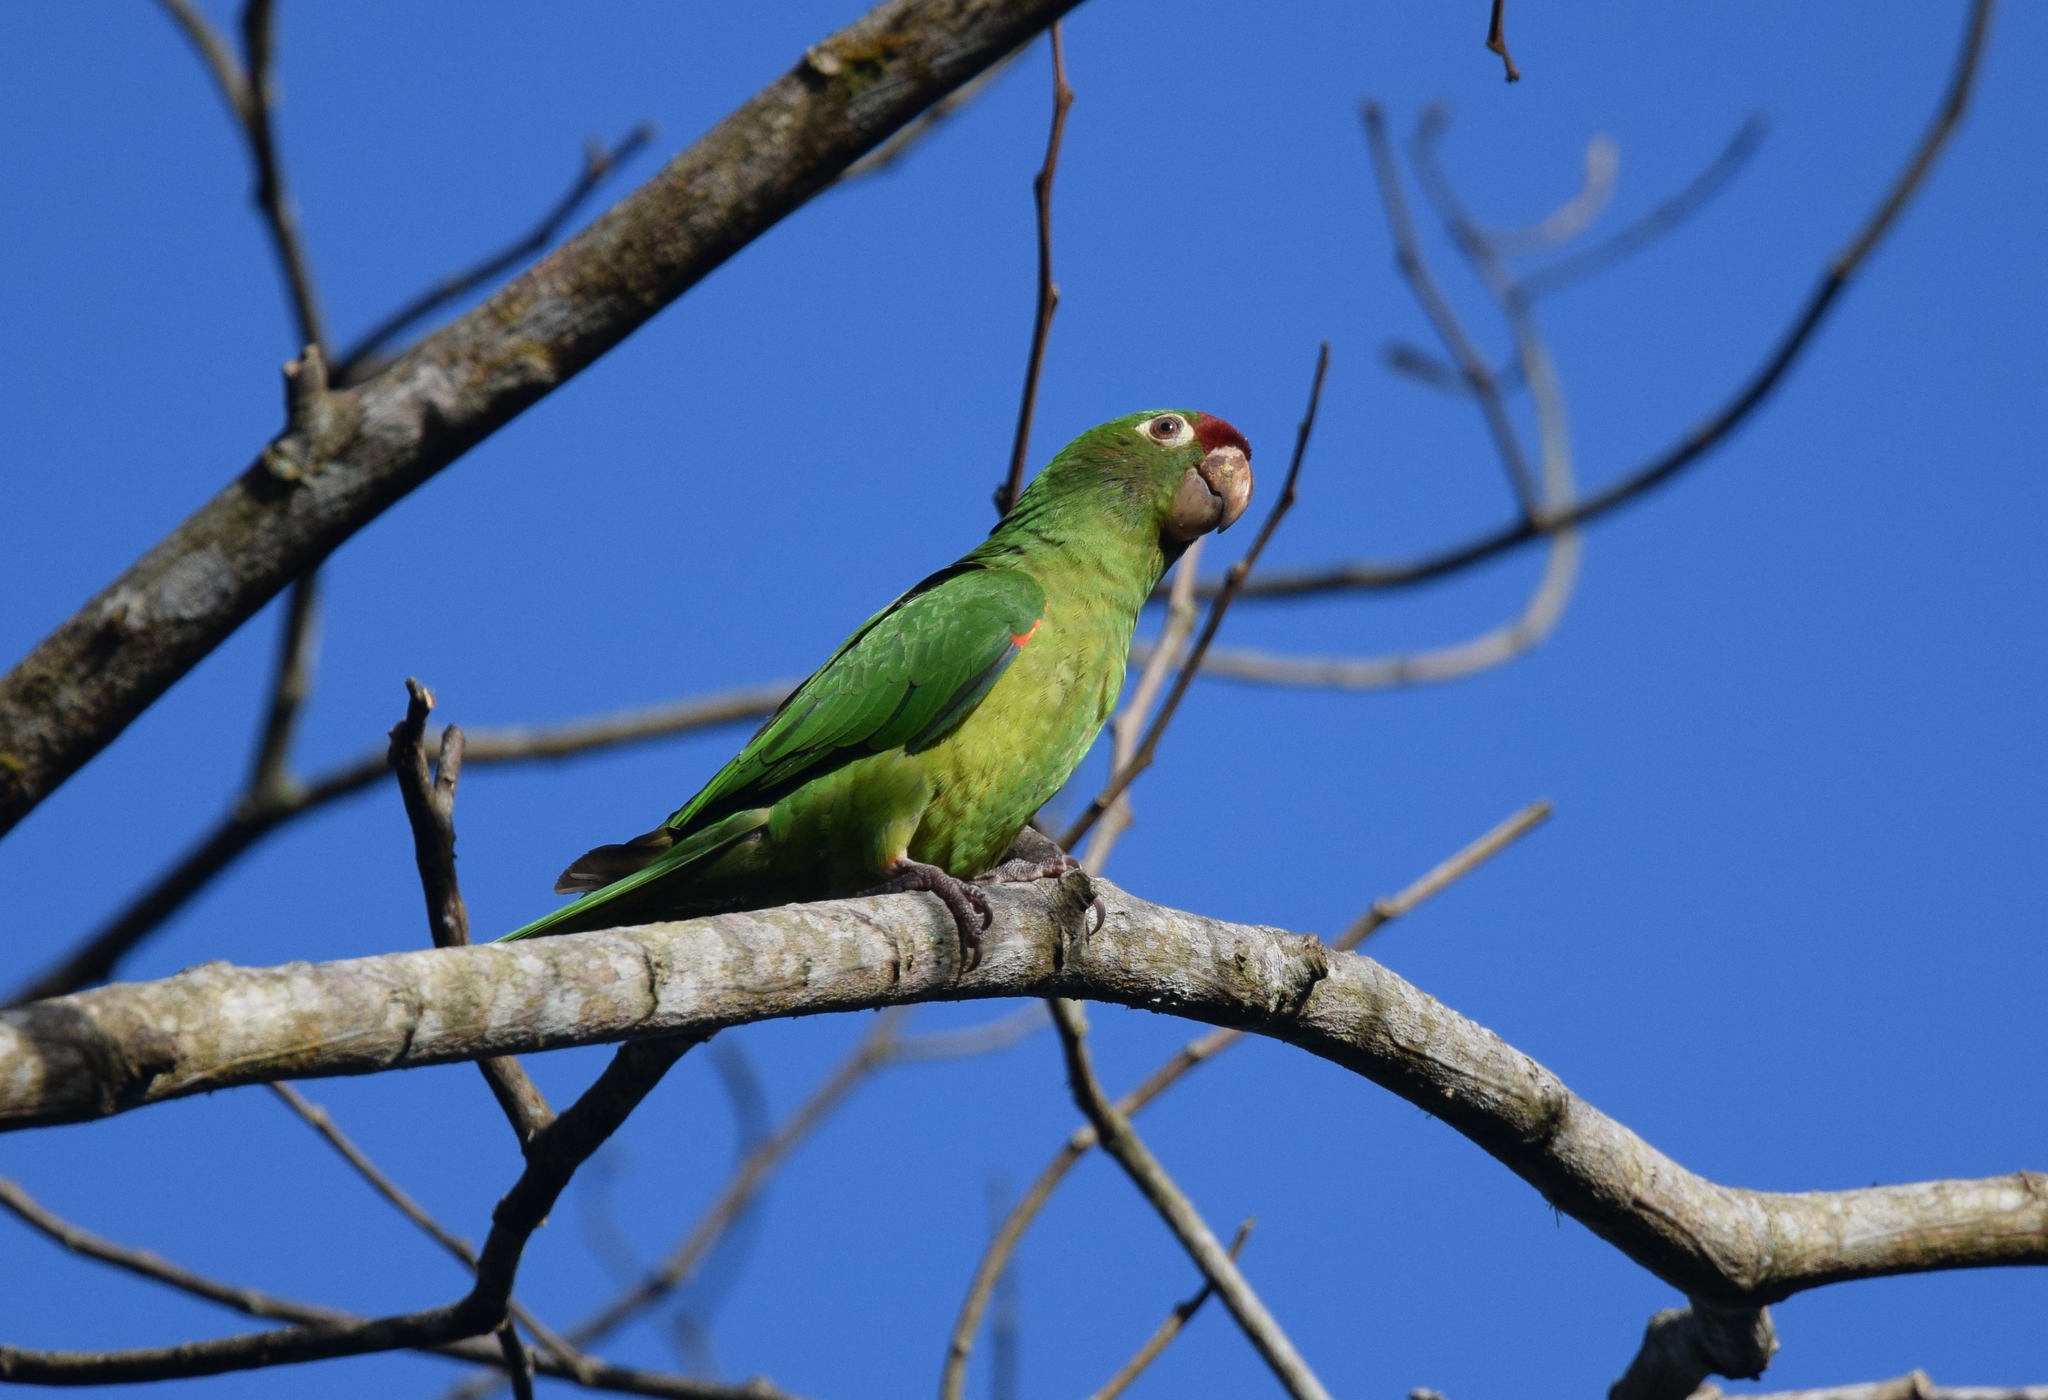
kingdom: Animalia
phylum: Chordata
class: Aves
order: Psittaciformes
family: Psittacidae
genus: Aratinga
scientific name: Aratinga finschi
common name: Crimson-fronted parakeet
